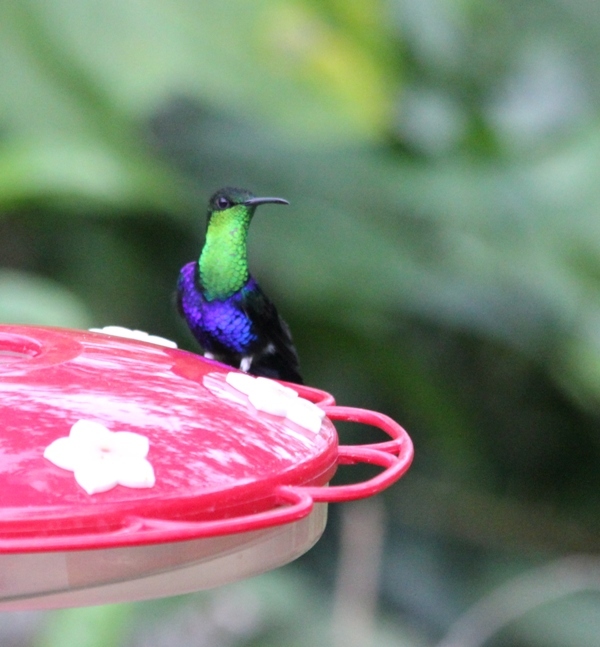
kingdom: Animalia
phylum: Chordata
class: Aves
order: Apodiformes
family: Trochilidae
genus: Thalurania
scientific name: Thalurania furcata
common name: Fork-tailed woodnymph
